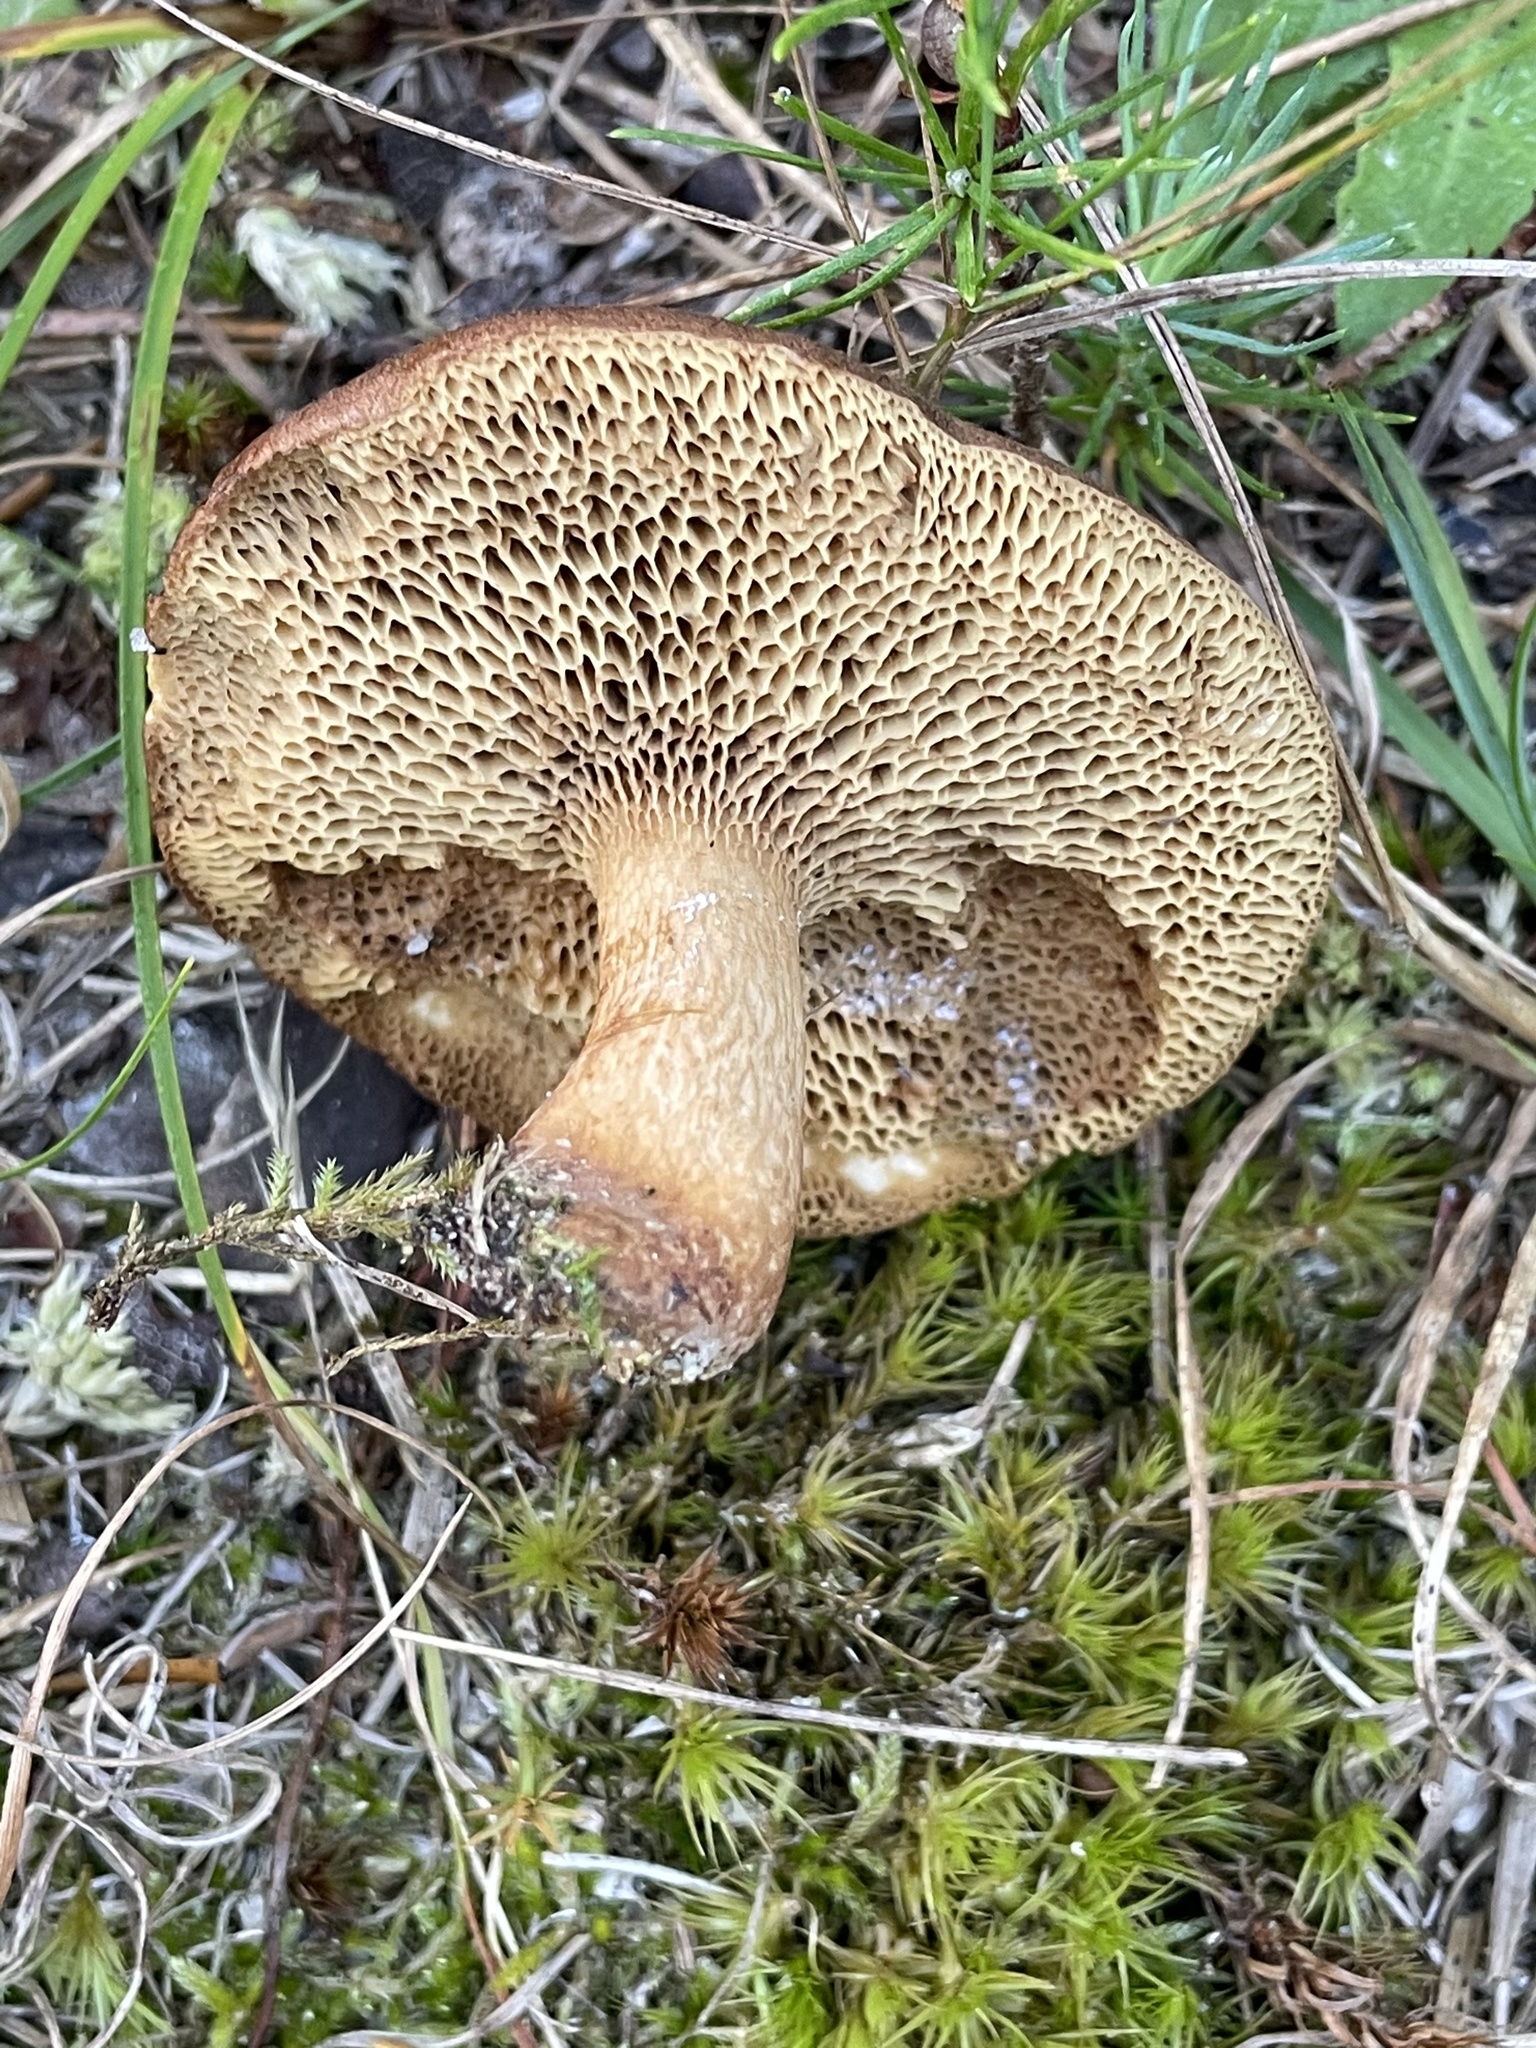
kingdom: Fungi
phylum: Basidiomycota
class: Agaricomycetes
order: Boletales
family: Boletaceae
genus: Bothia
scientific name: Bothia castanella
